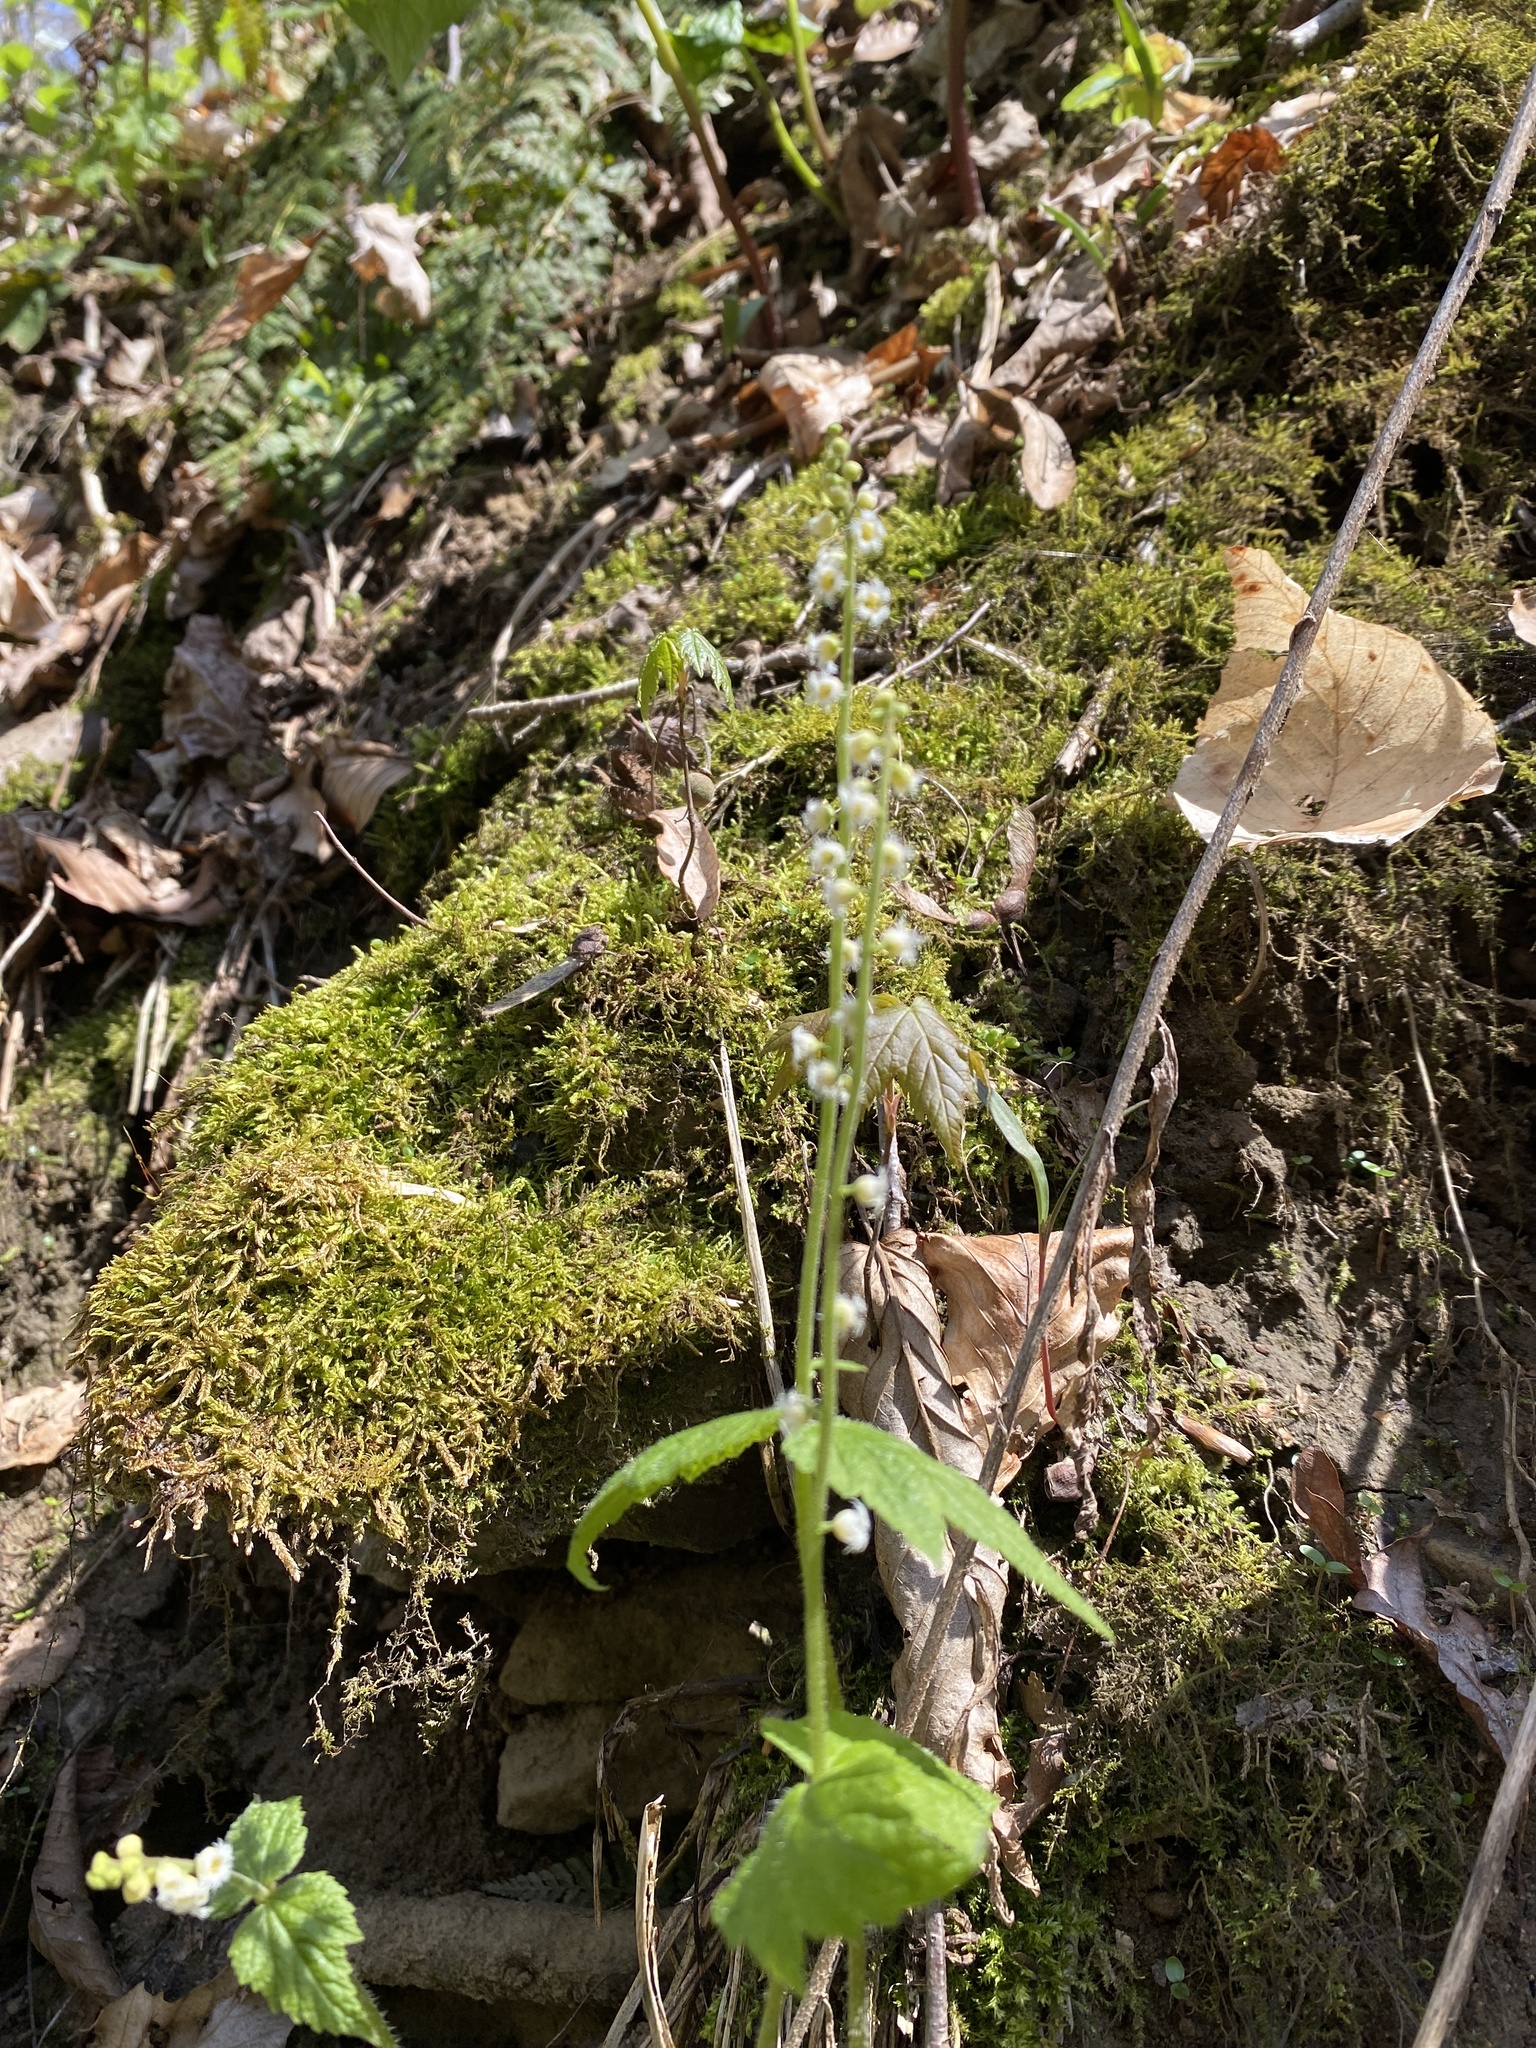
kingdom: Plantae
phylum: Tracheophyta
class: Magnoliopsida
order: Saxifragales
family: Saxifragaceae
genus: Mitella
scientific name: Mitella diphylla
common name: Coolwort
